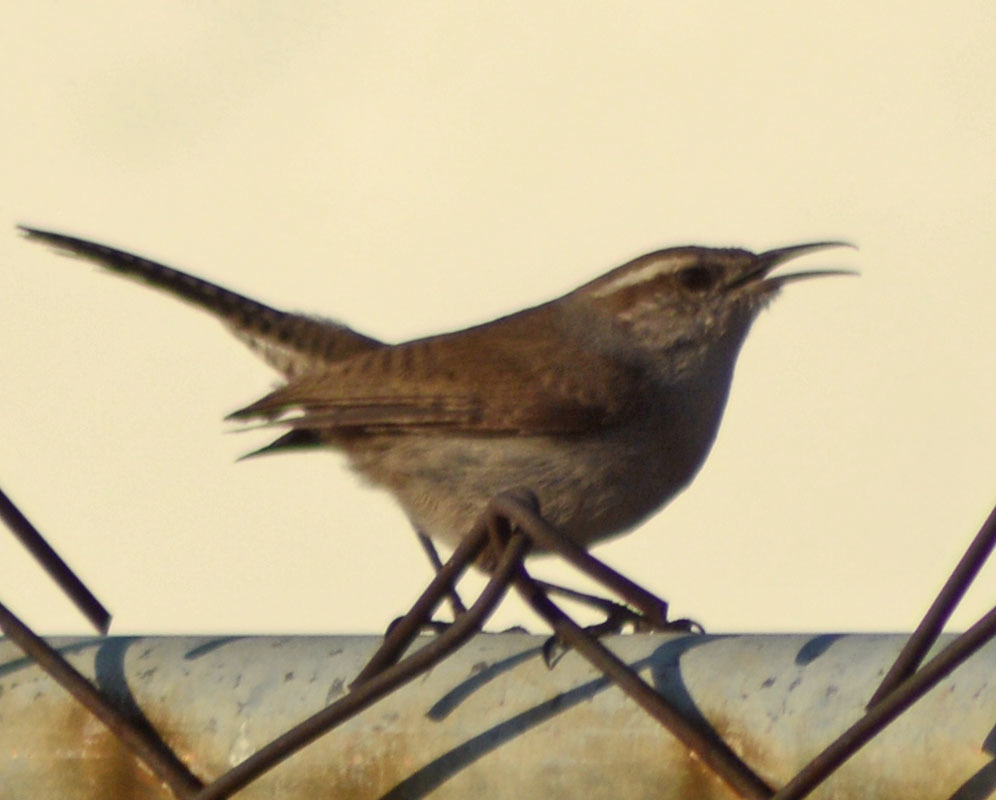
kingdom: Animalia
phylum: Chordata
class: Aves
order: Passeriformes
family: Troglodytidae
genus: Thryomanes
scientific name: Thryomanes bewickii
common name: Bewick's wren
